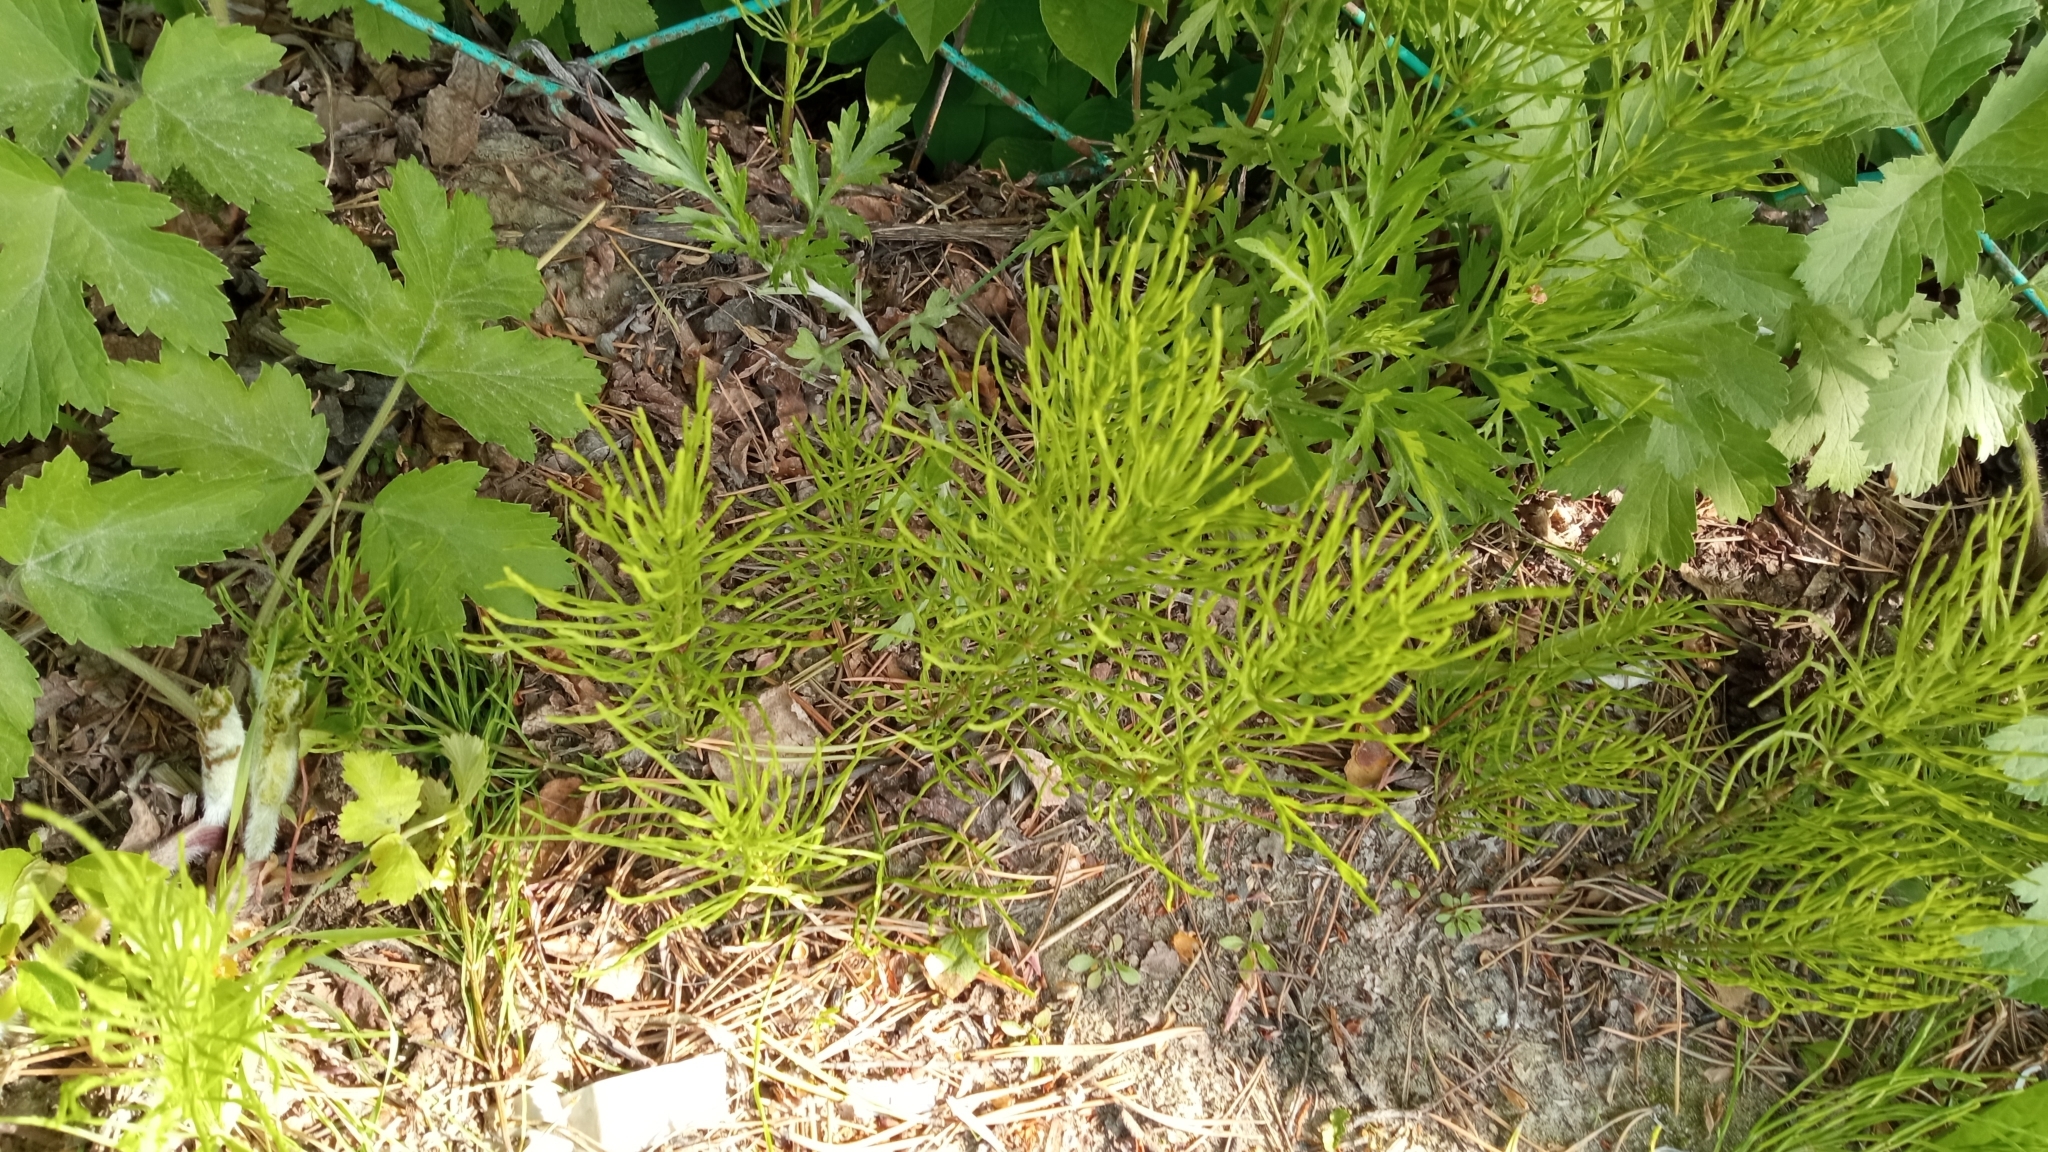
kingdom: Plantae
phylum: Tracheophyta
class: Polypodiopsida
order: Equisetales
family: Equisetaceae
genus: Equisetum
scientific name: Equisetum arvense
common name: Field horsetail
